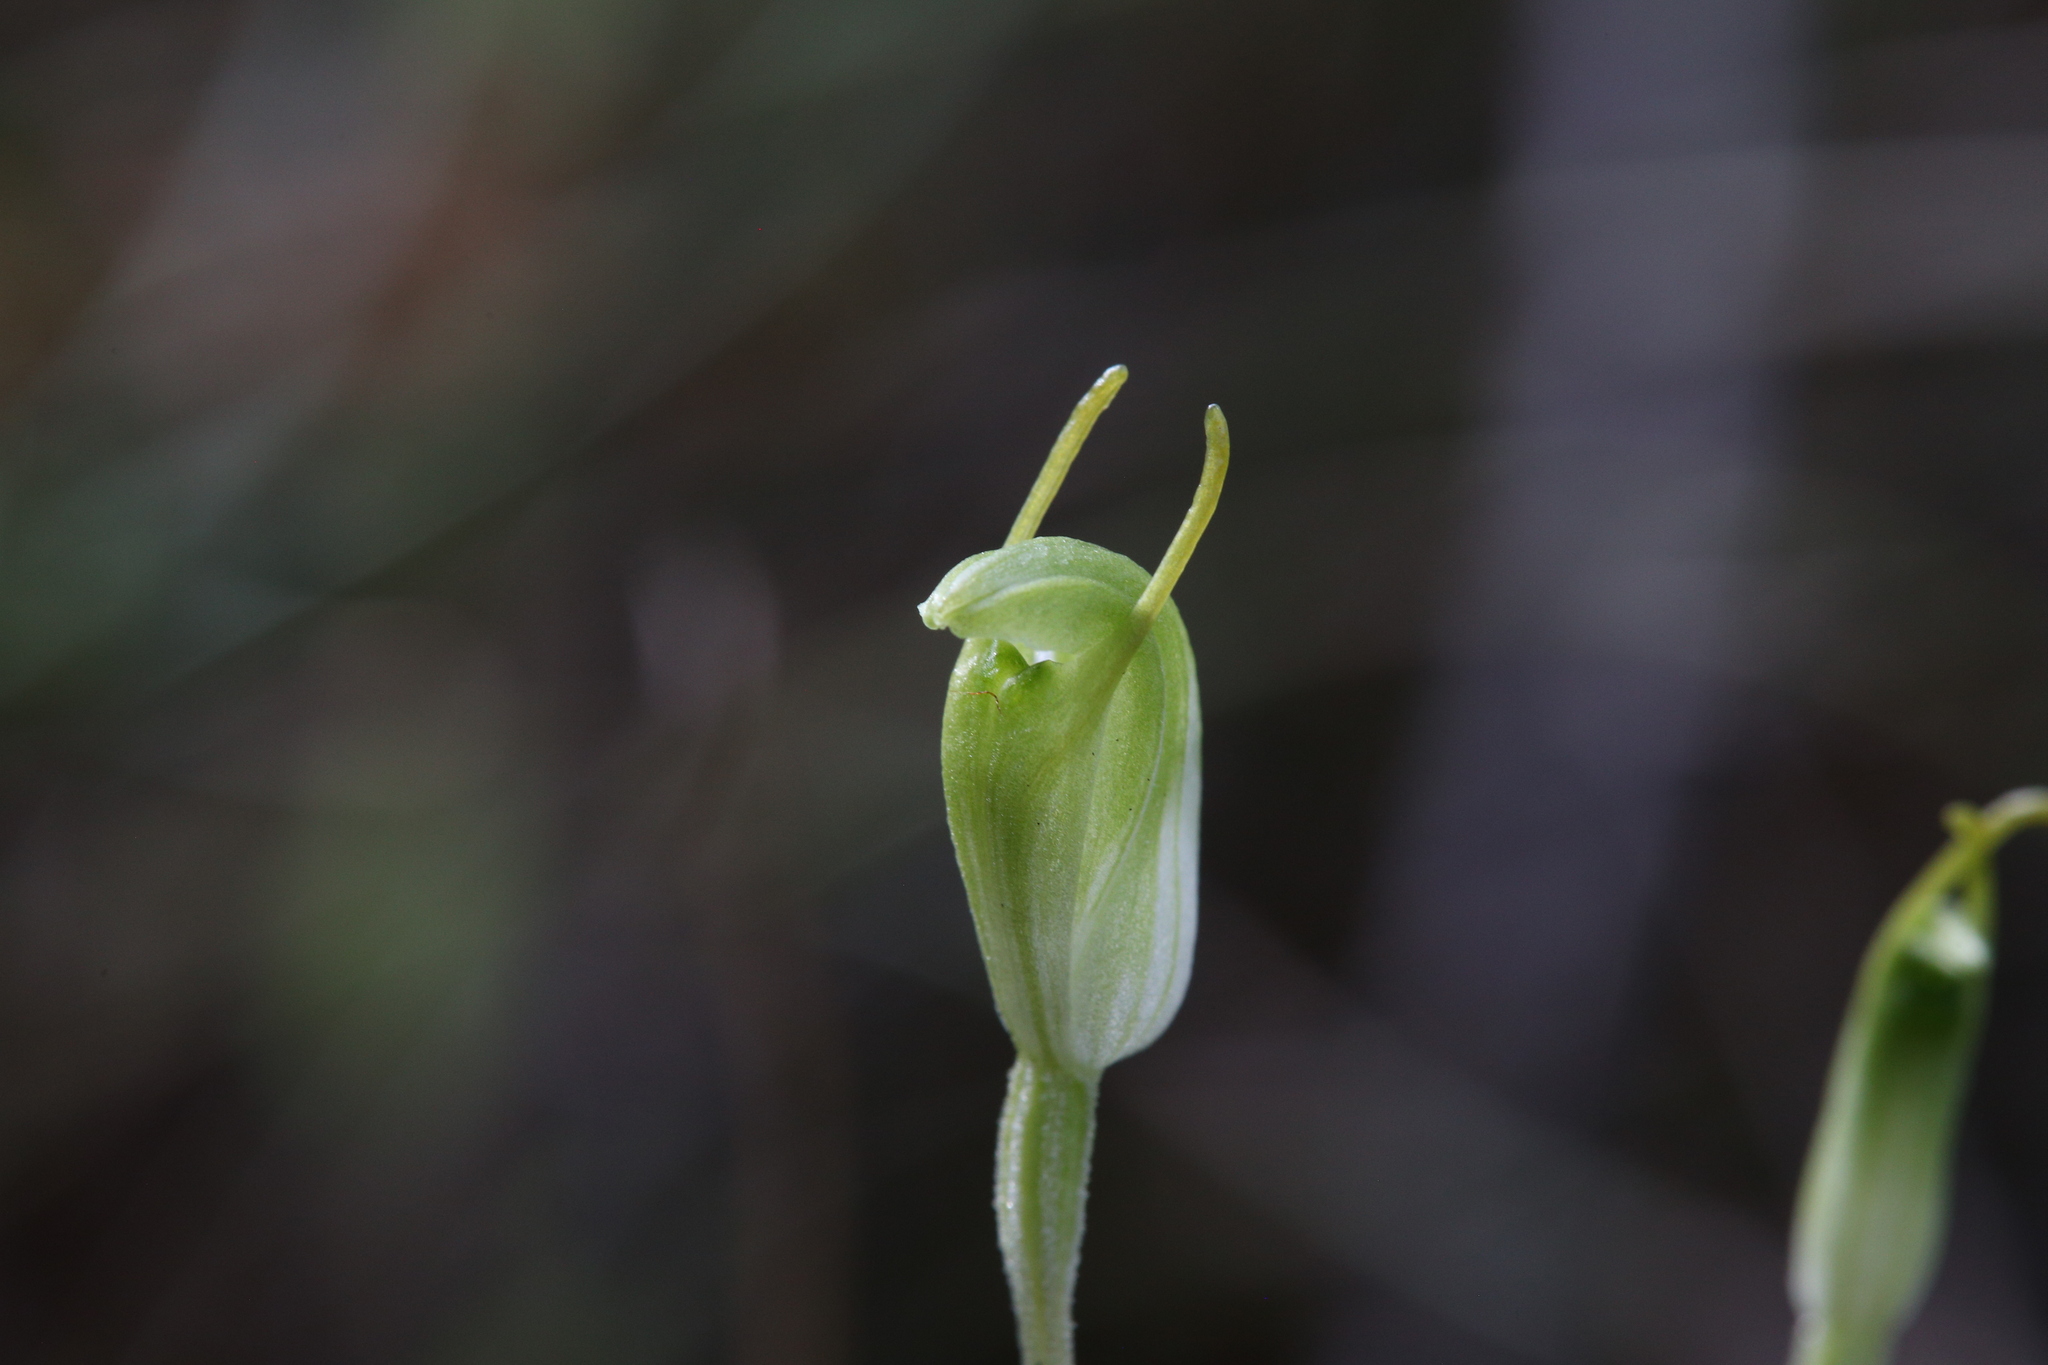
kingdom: Plantae
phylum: Tracheophyta
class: Liliopsida
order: Asparagales
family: Orchidaceae
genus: Pterostylis
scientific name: Pterostylis brevisepala
